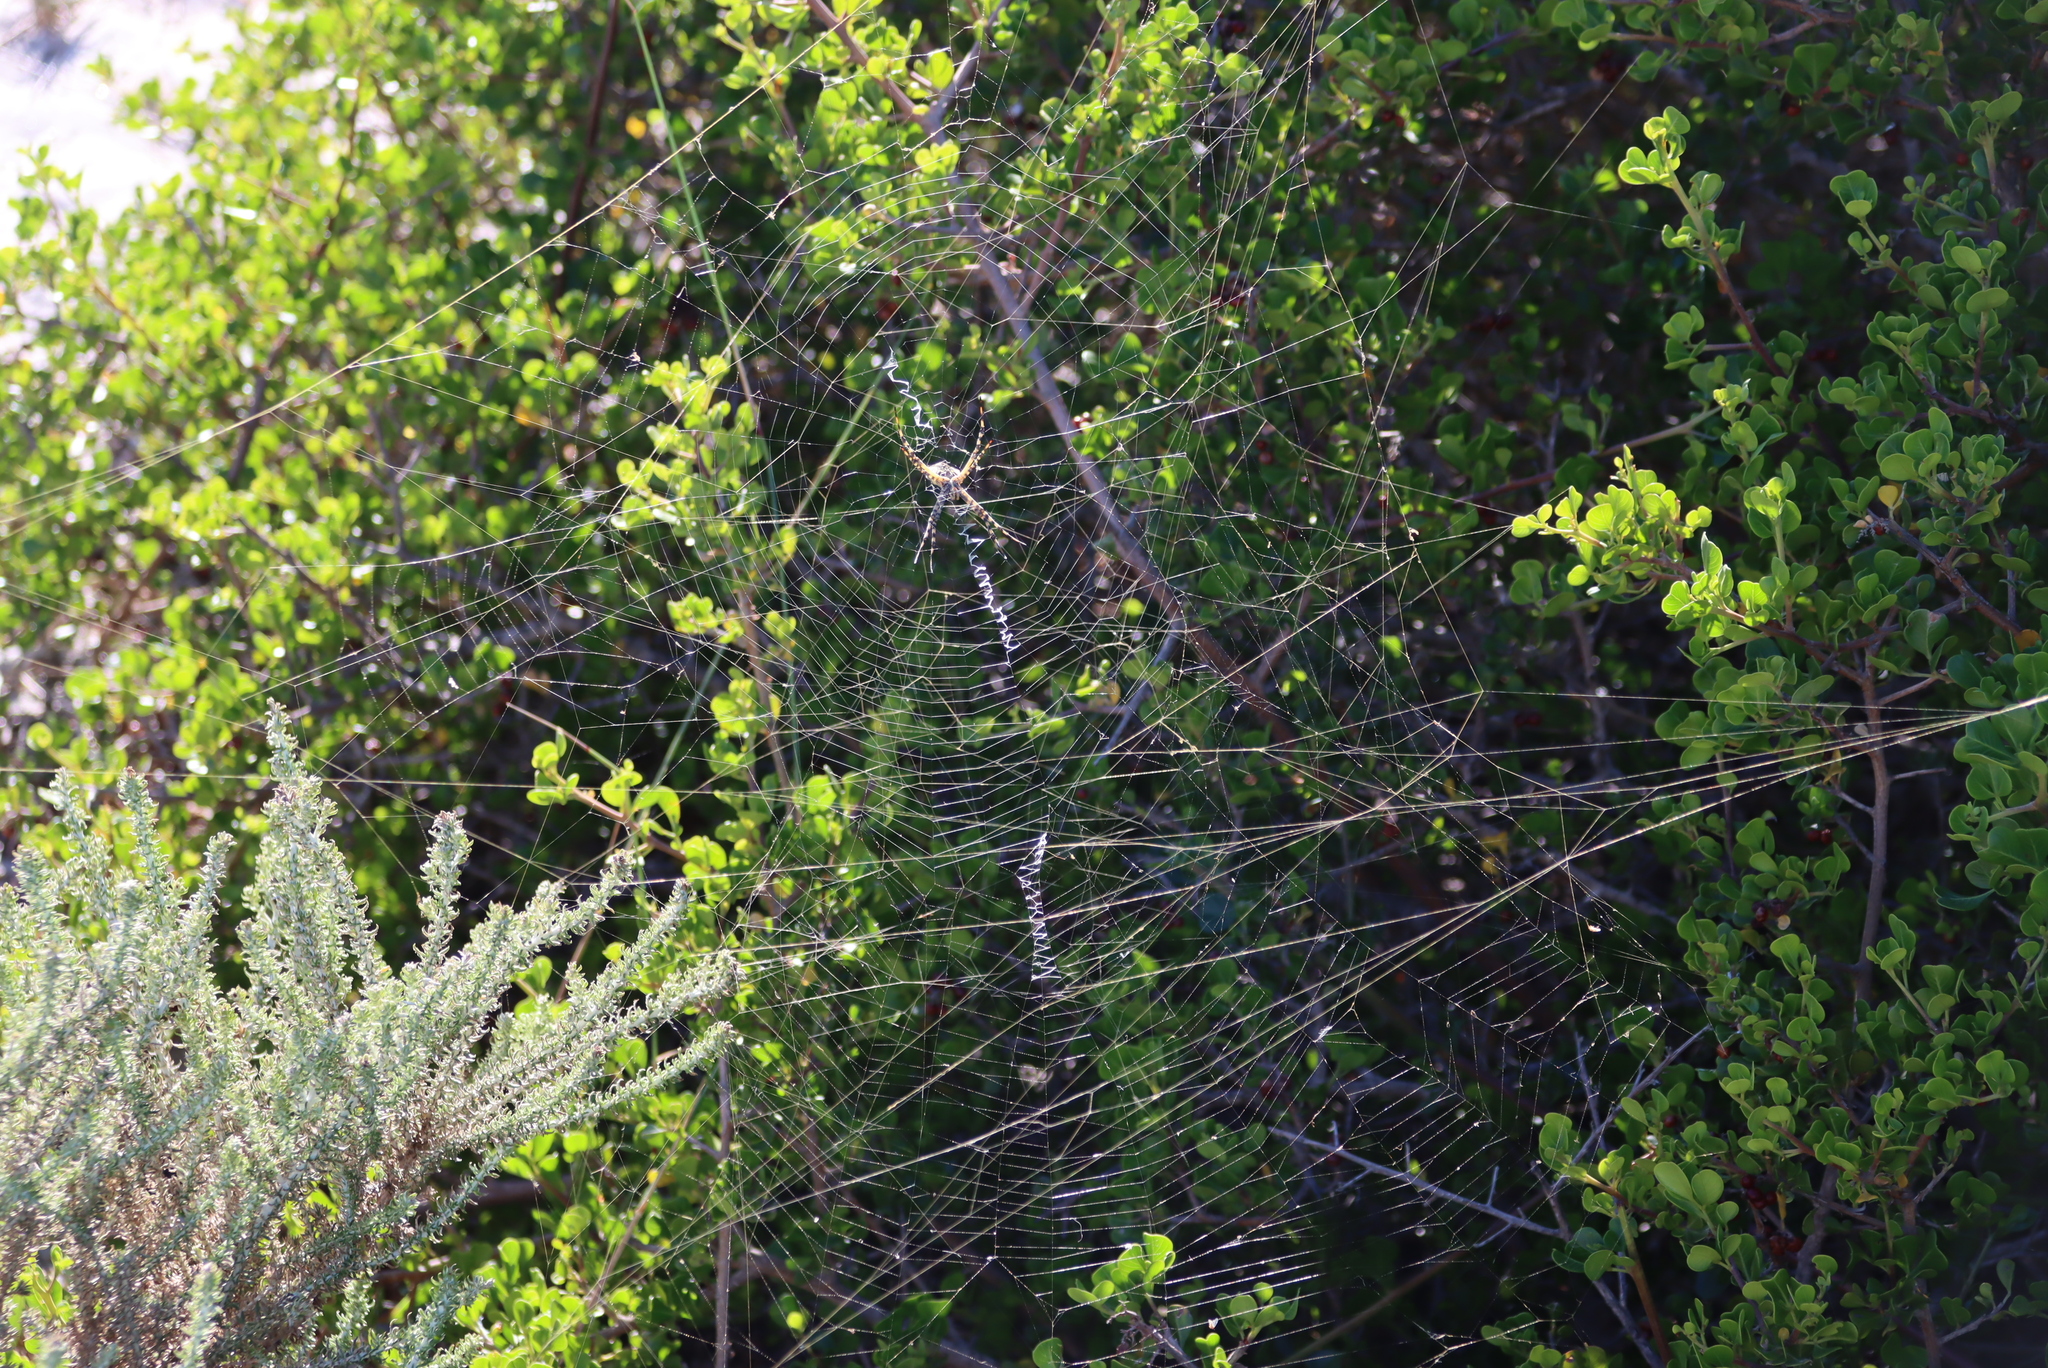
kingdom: Animalia
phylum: Arthropoda
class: Arachnida
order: Araneae
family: Araneidae
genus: Argiope
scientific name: Argiope australis
